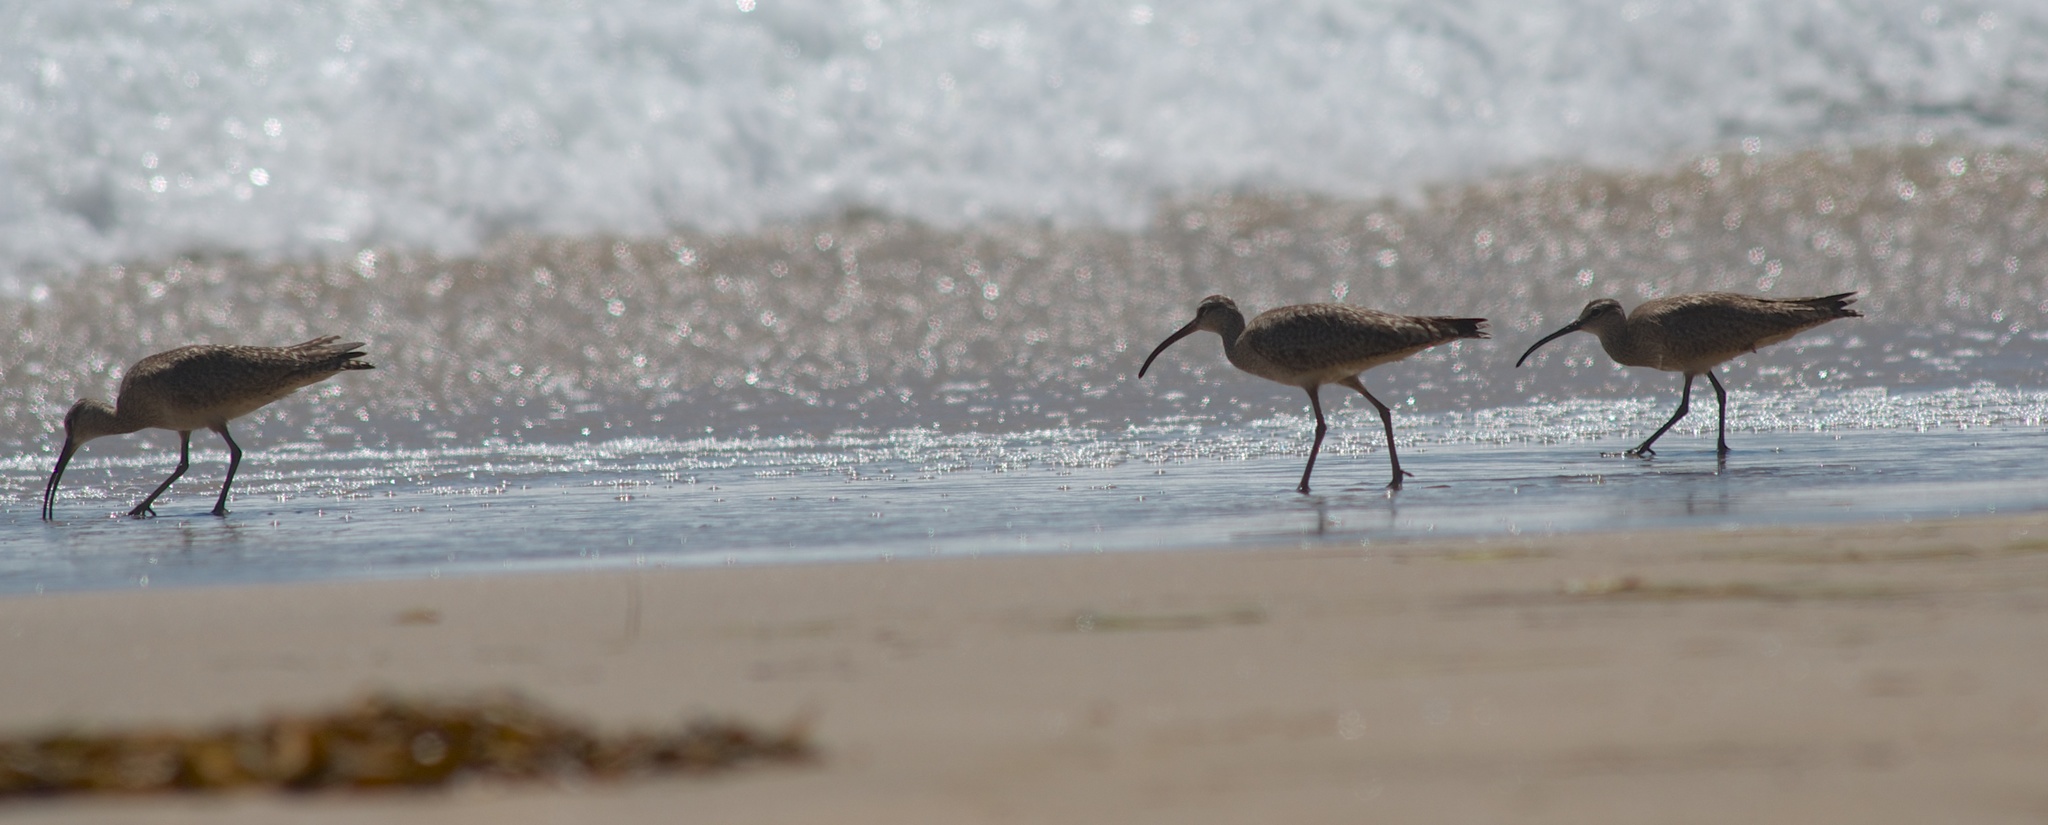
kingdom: Animalia
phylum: Chordata
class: Aves
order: Charadriiformes
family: Scolopacidae
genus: Numenius
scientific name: Numenius phaeopus
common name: Whimbrel
